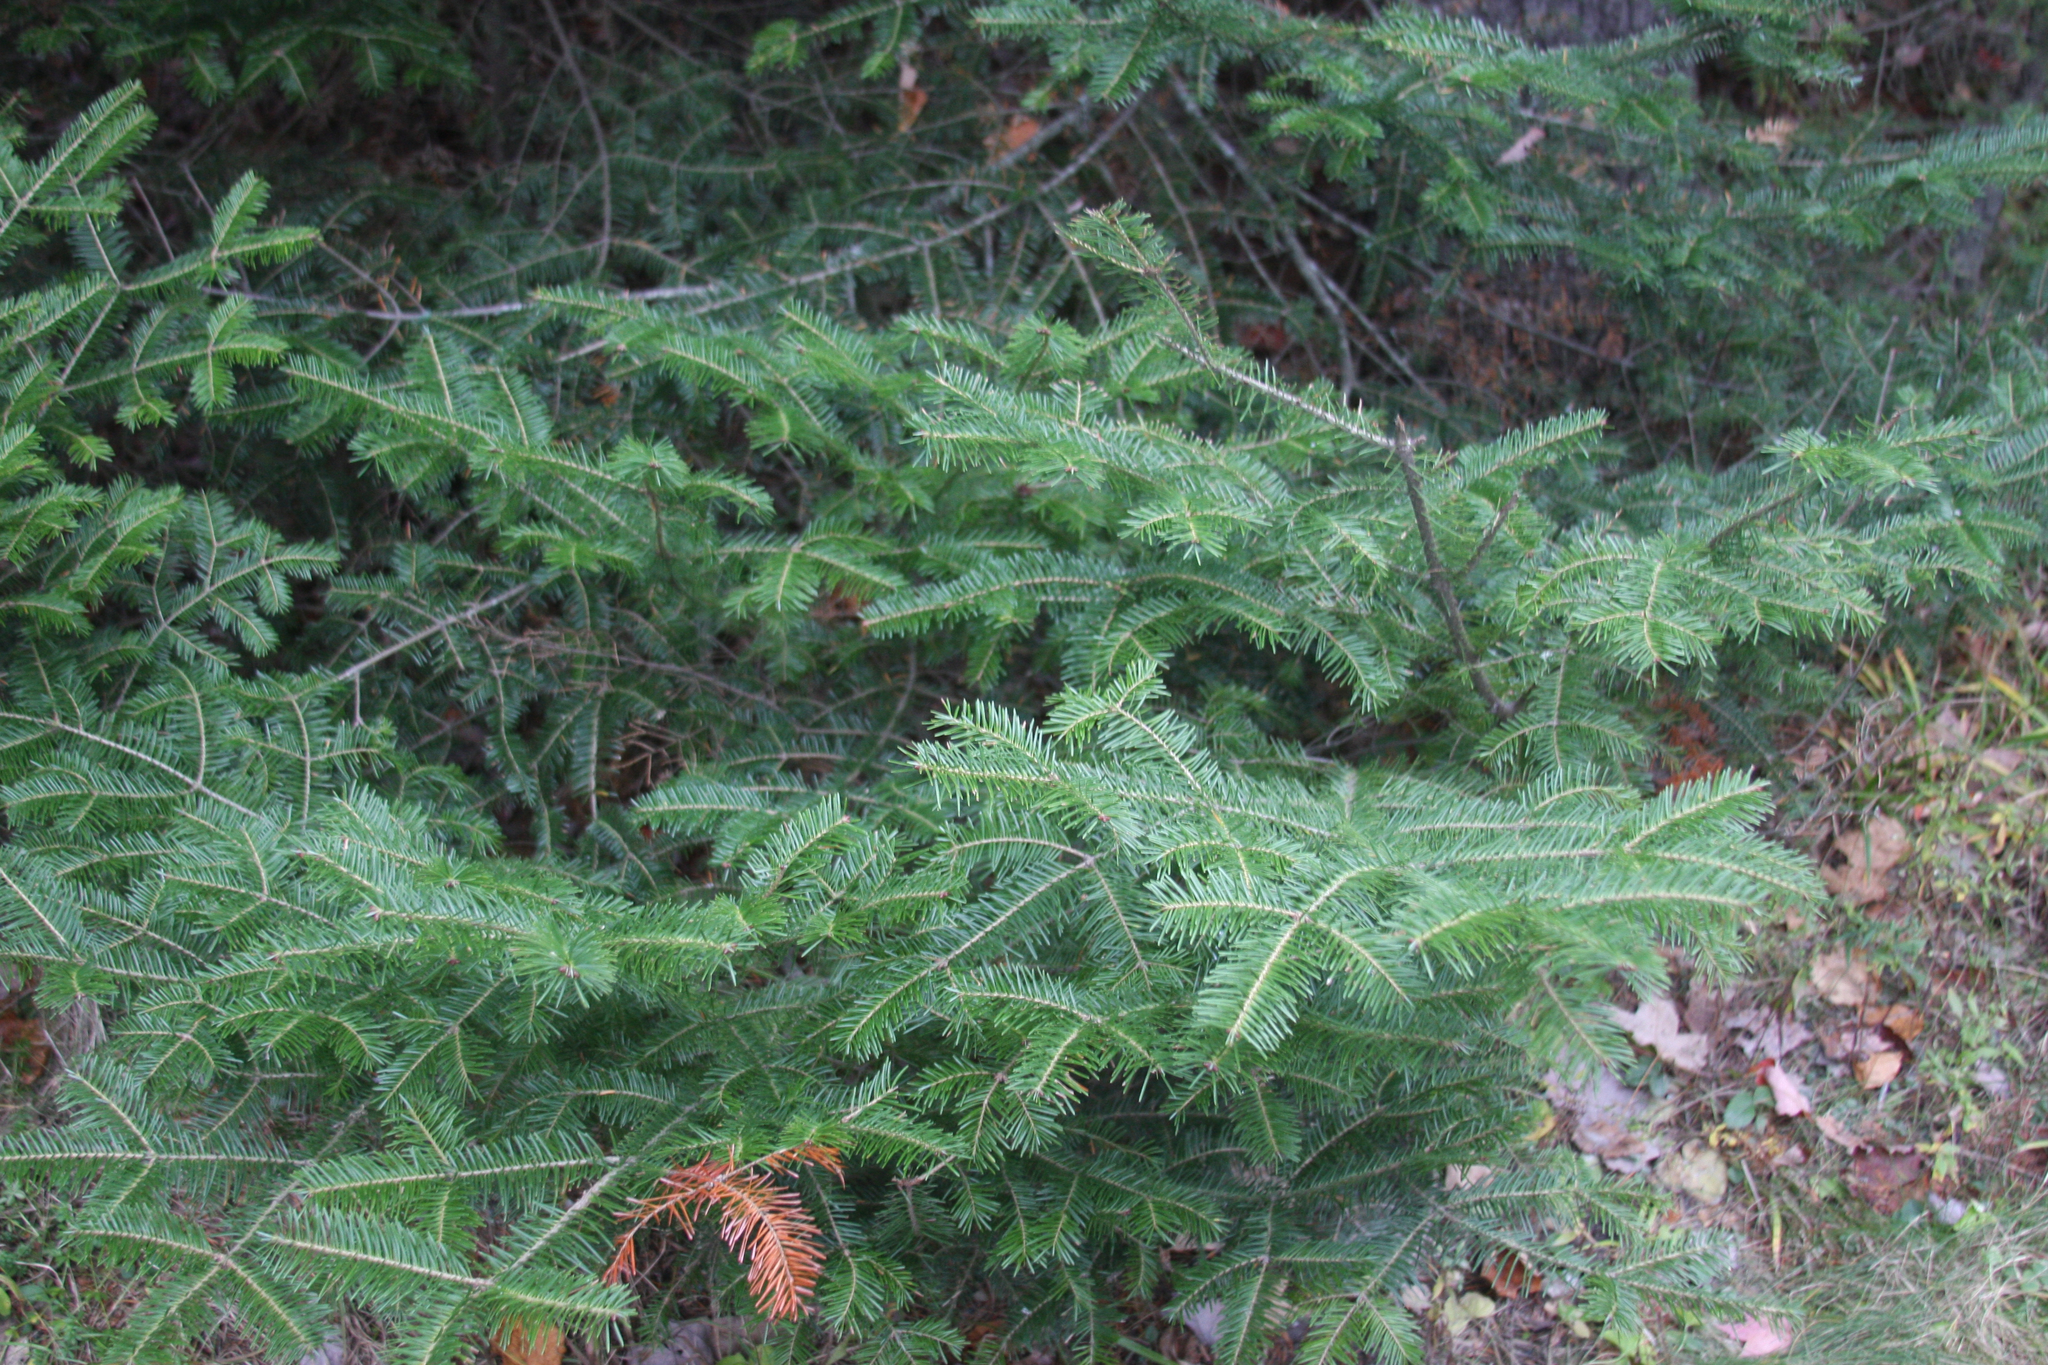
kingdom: Plantae
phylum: Tracheophyta
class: Pinopsida
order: Pinales
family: Pinaceae
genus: Abies
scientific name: Abies balsamea
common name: Balsam fir
